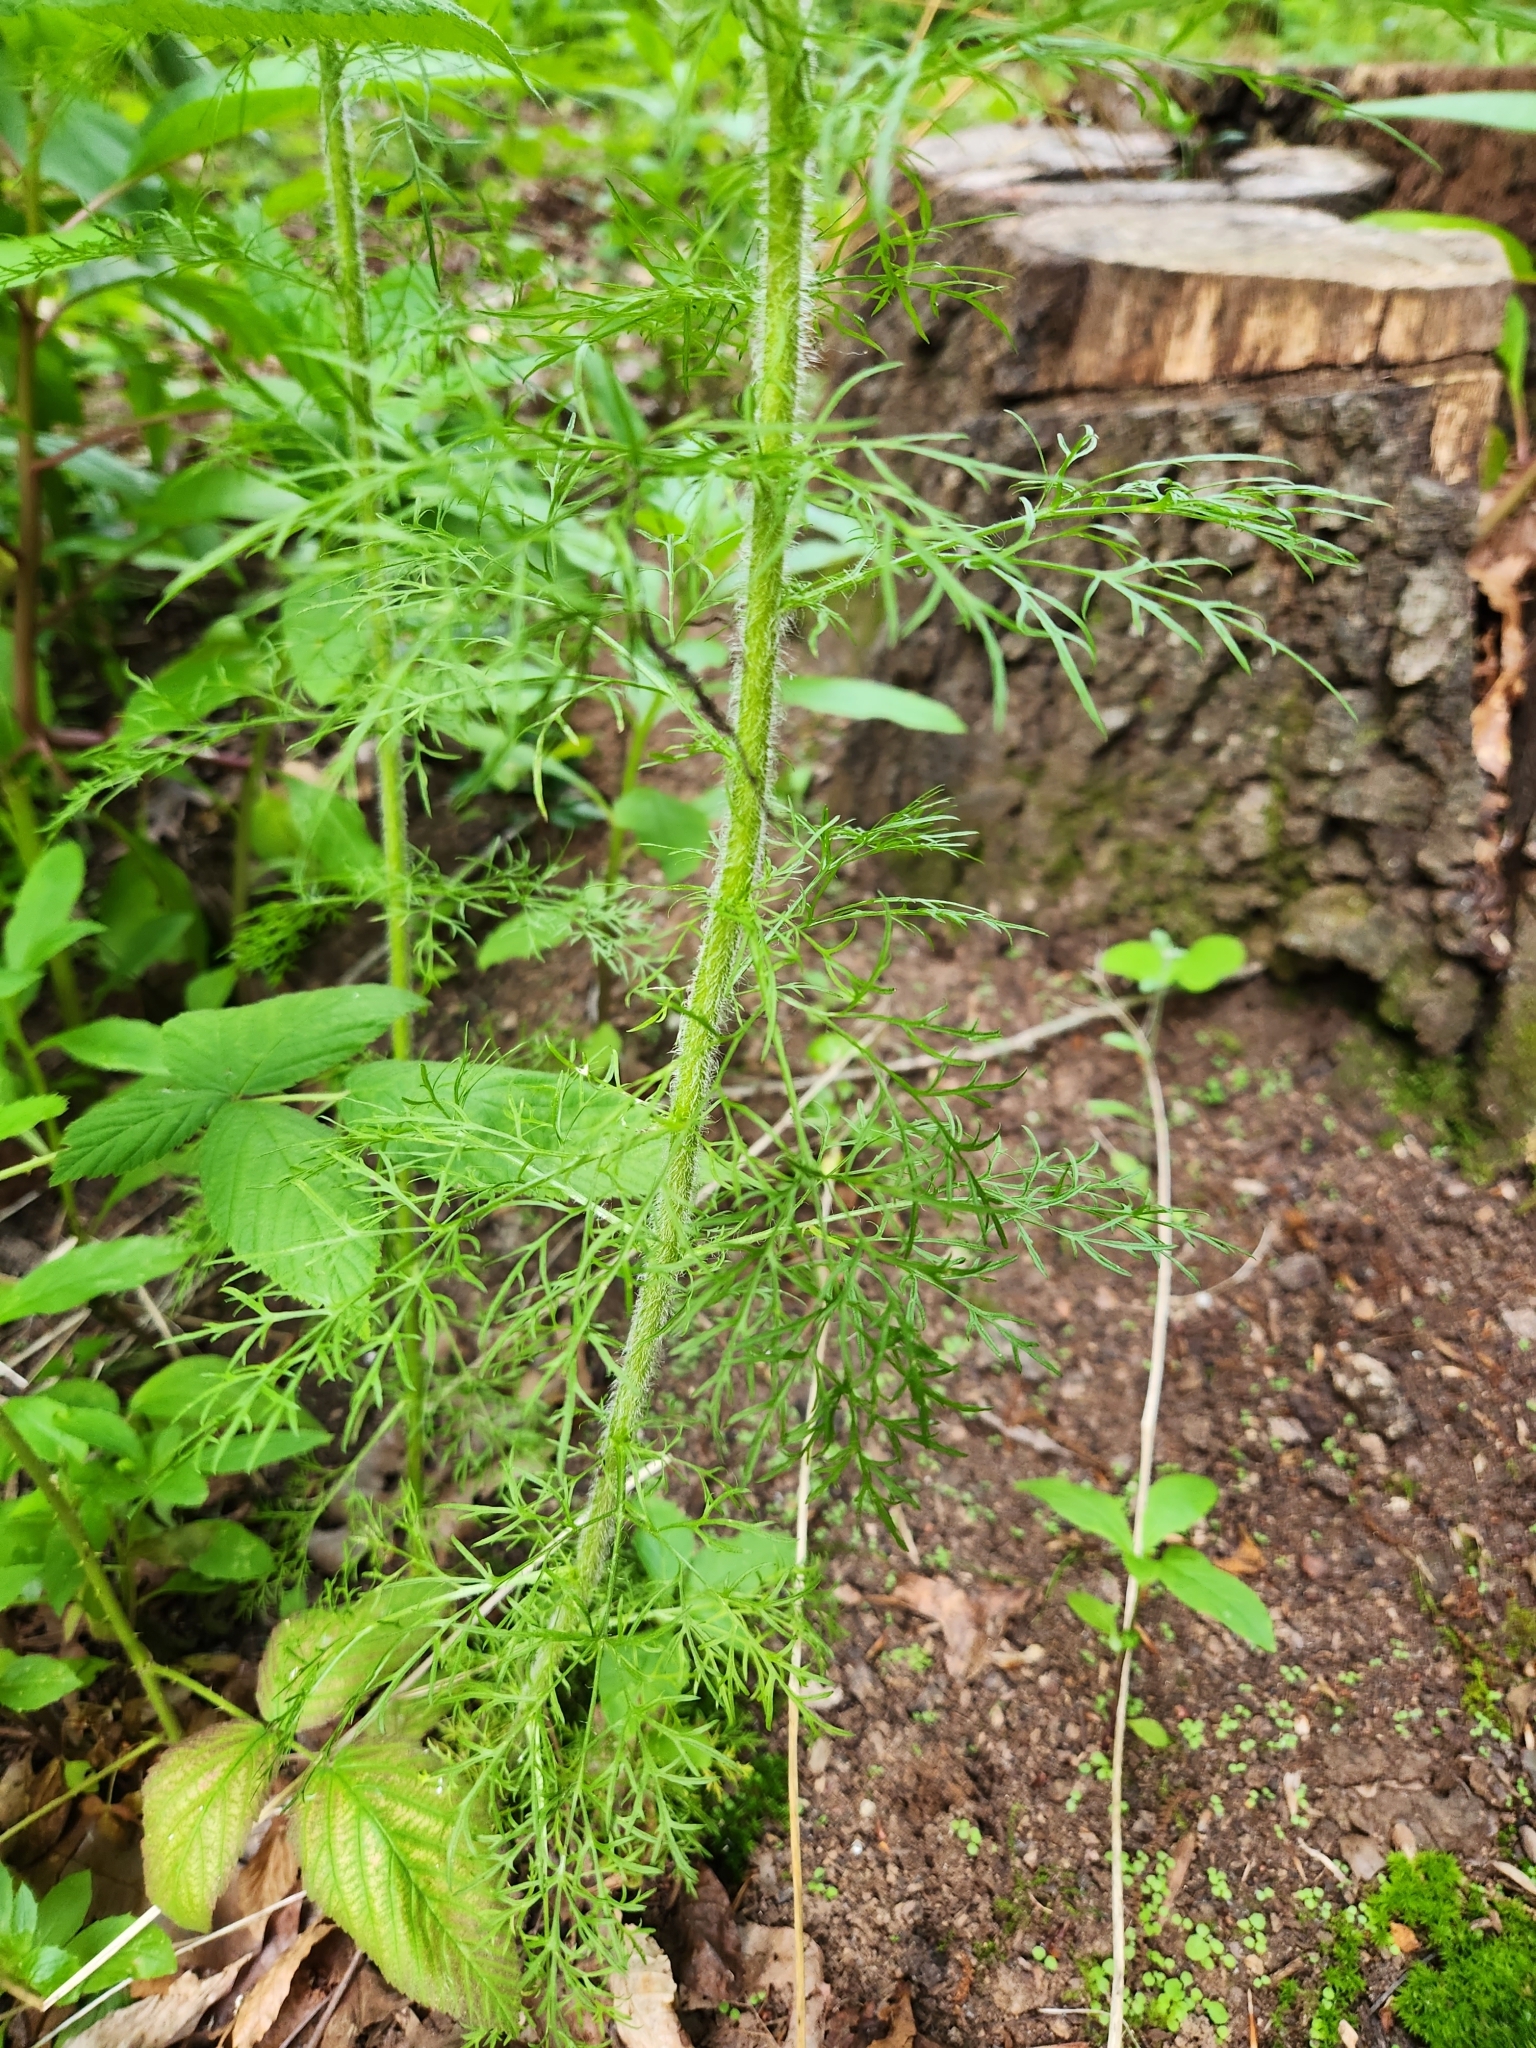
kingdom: Plantae
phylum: Tracheophyta
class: Magnoliopsida
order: Asterales
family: Asteraceae
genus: Eupatorium
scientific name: Eupatorium capillifolium
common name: Dog-fennel
